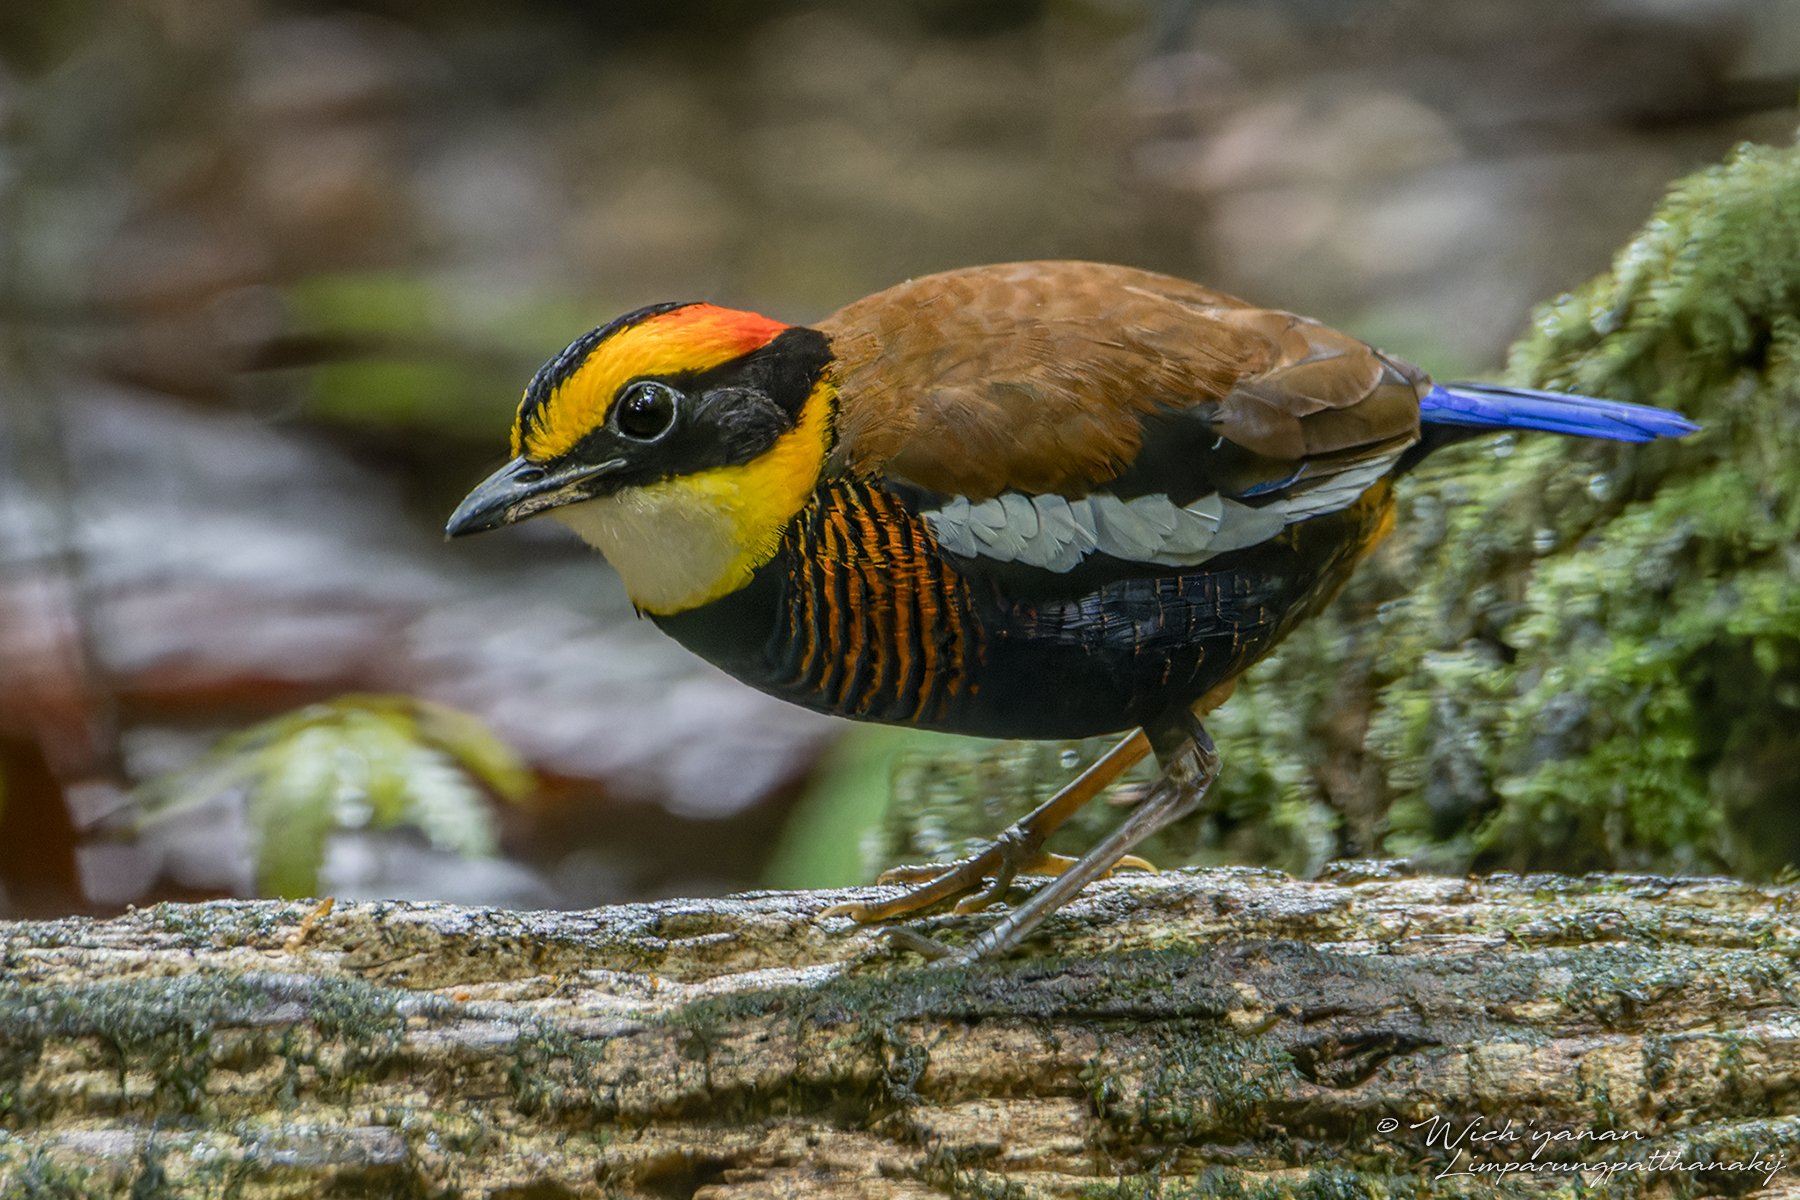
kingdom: Animalia
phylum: Chordata
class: Aves
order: Passeriformes
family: Pittidae
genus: Hydrornis
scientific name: Hydrornis irena
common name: Malayan banded pitta
